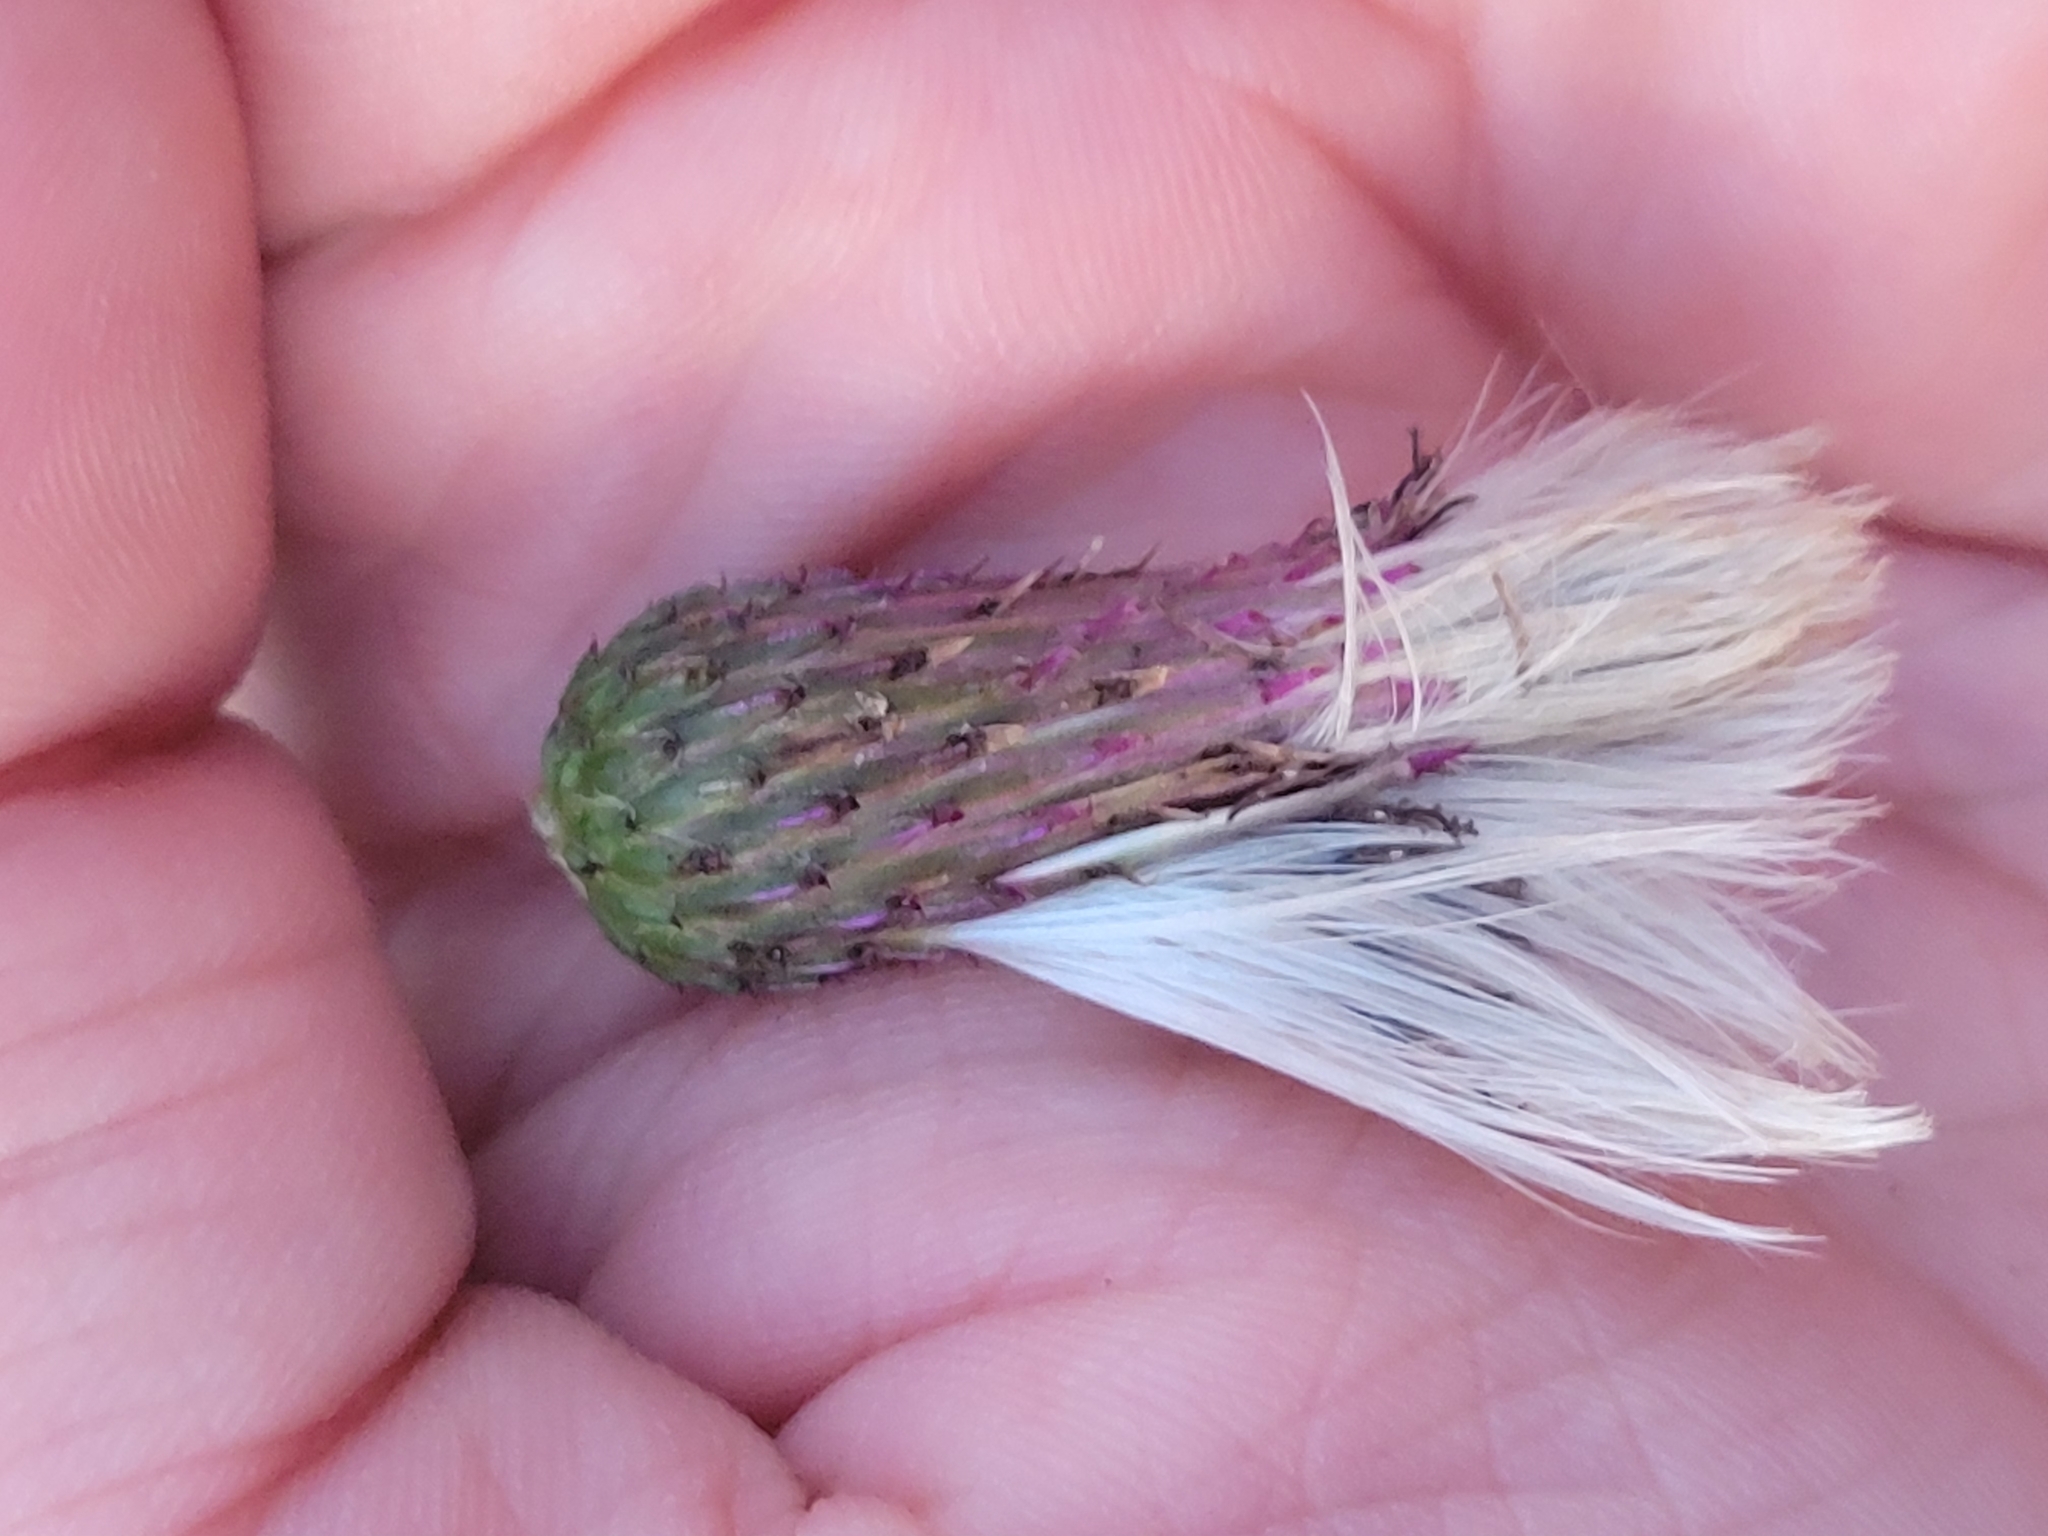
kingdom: Plantae
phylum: Tracheophyta
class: Magnoliopsida
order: Asterales
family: Asteraceae
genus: Cirsium
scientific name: Cirsium arvense
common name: Creeping thistle
